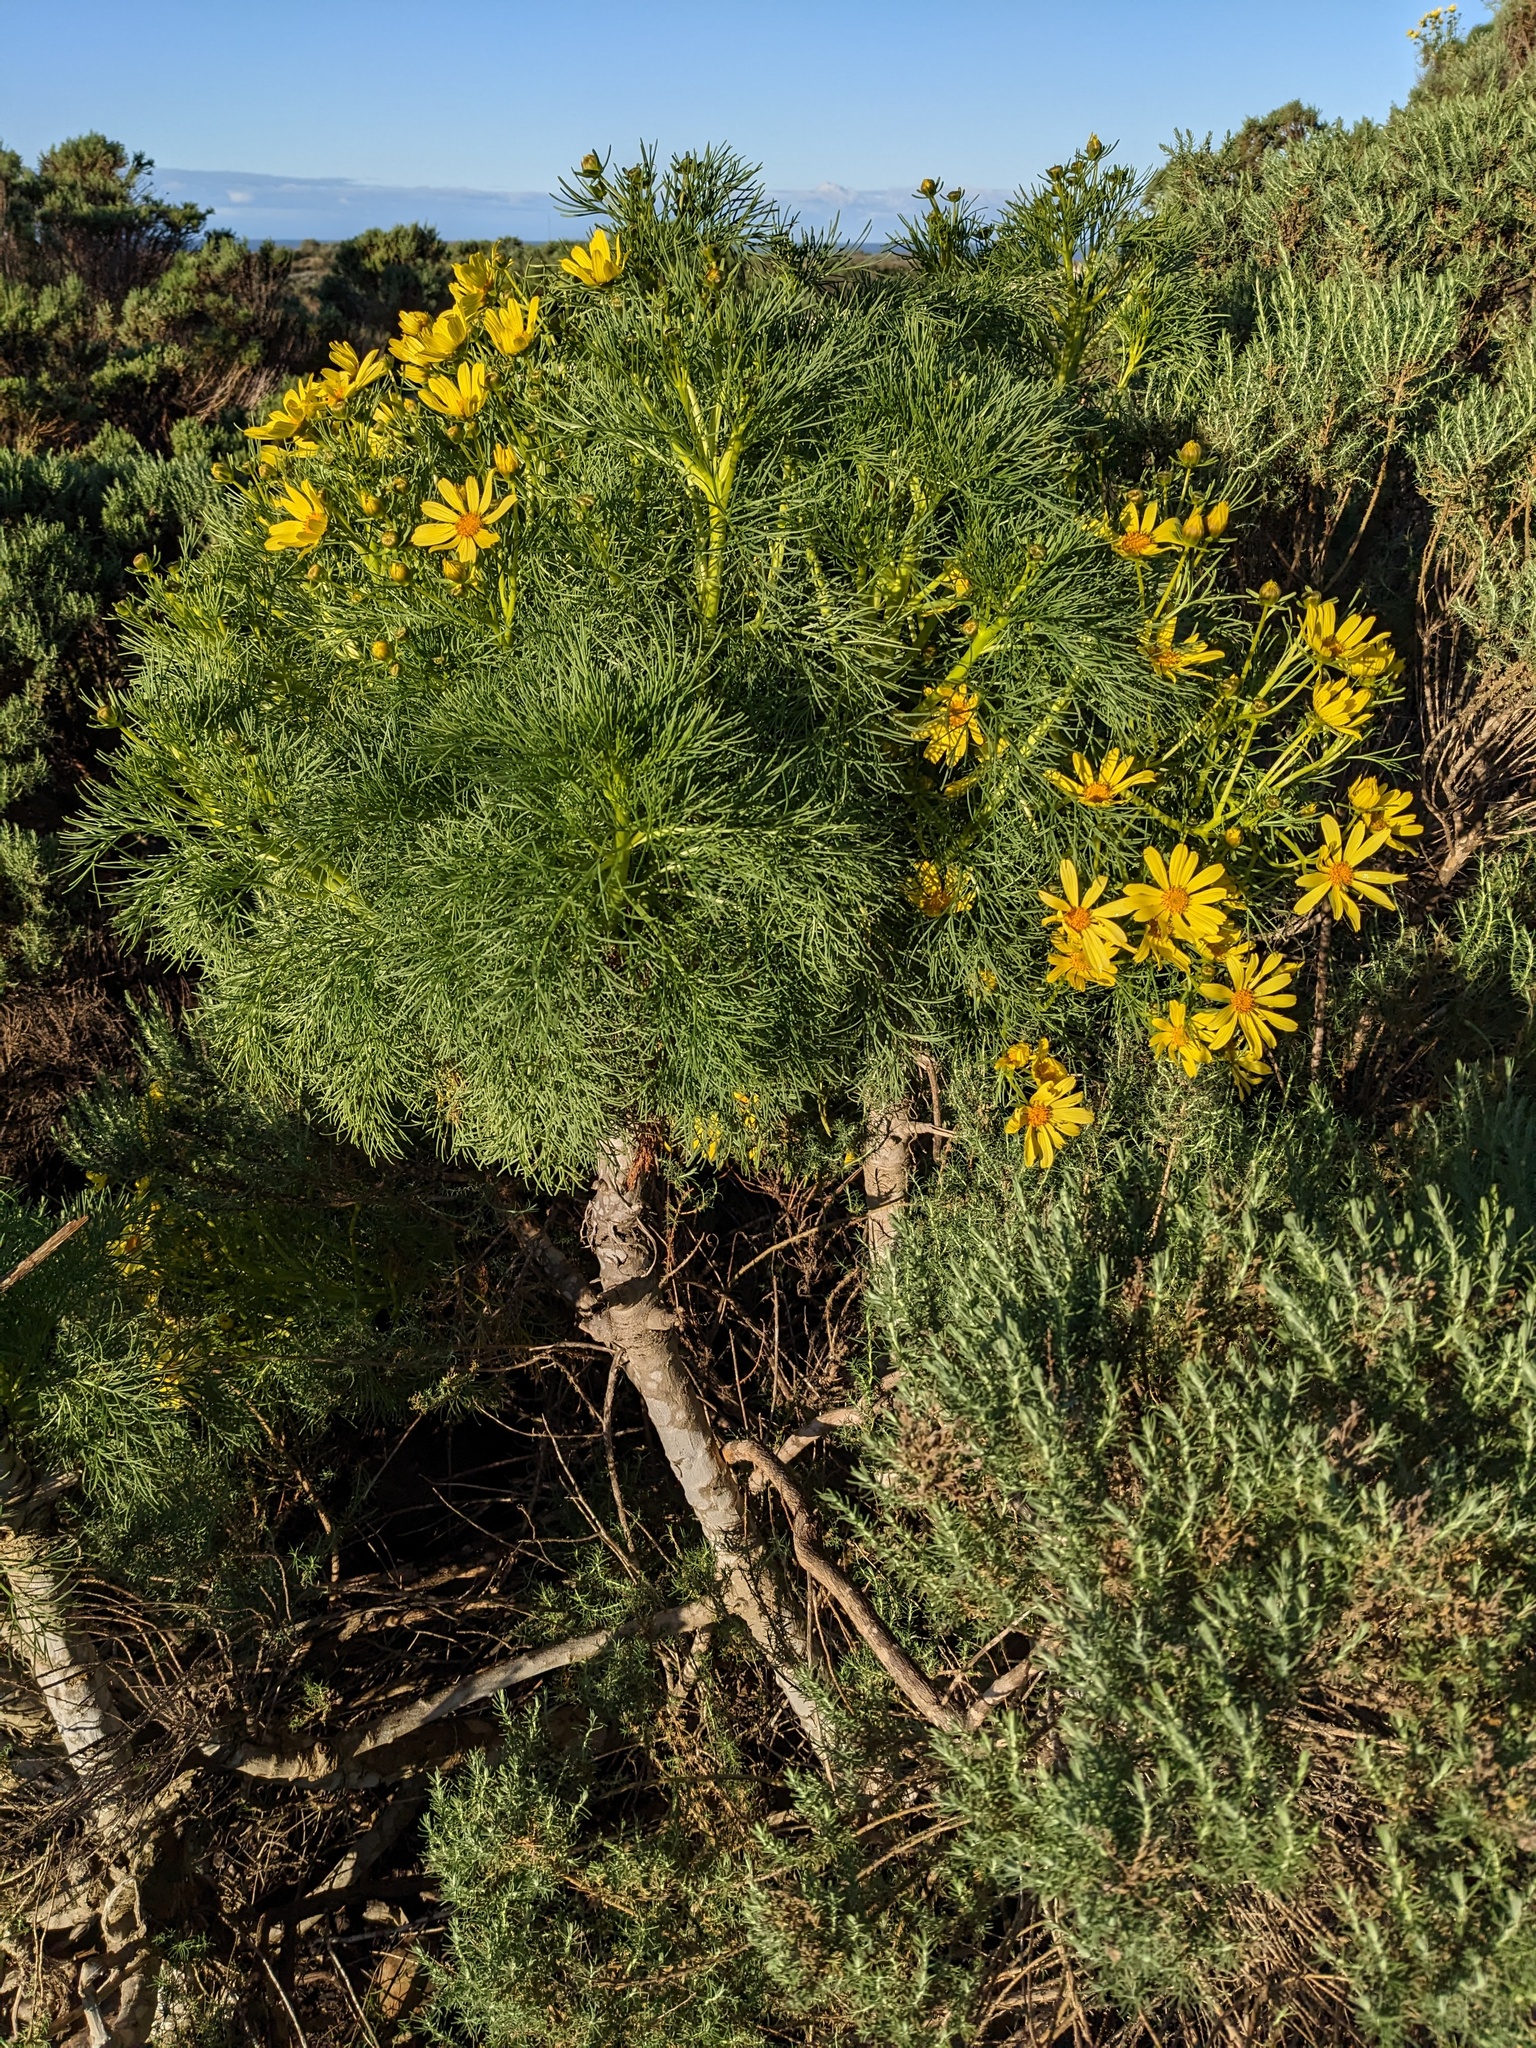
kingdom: Plantae
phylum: Tracheophyta
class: Magnoliopsida
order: Asterales
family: Asteraceae
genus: Coreopsis
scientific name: Coreopsis gigantea
